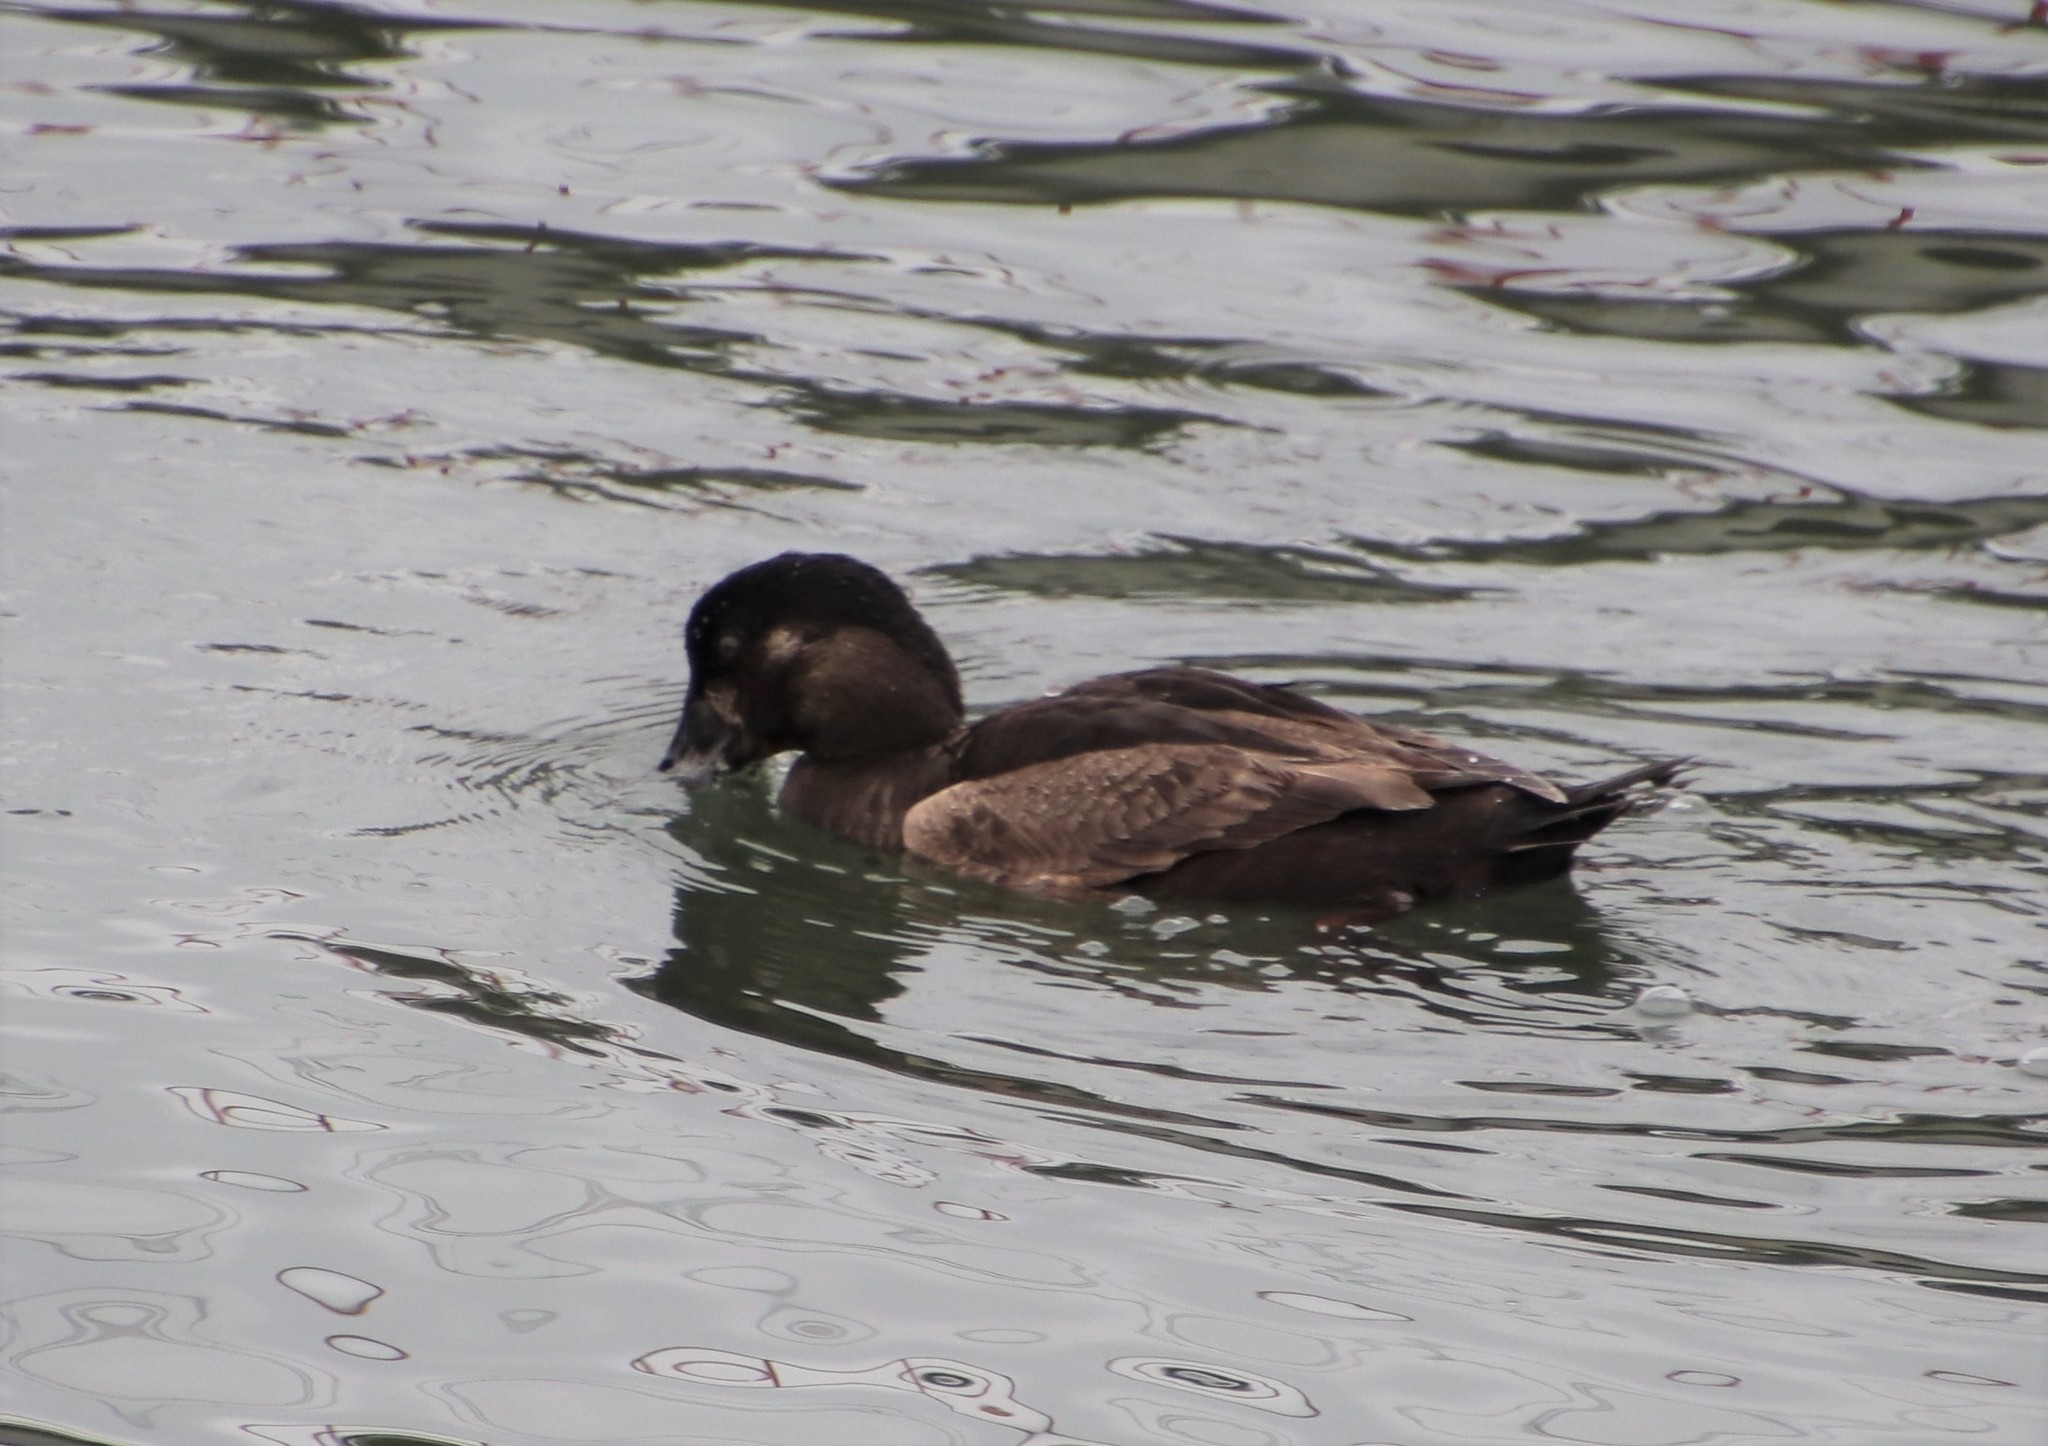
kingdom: Animalia
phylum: Chordata
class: Aves
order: Anseriformes
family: Anatidae
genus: Melanitta
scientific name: Melanitta perspicillata
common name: Surf scoter
